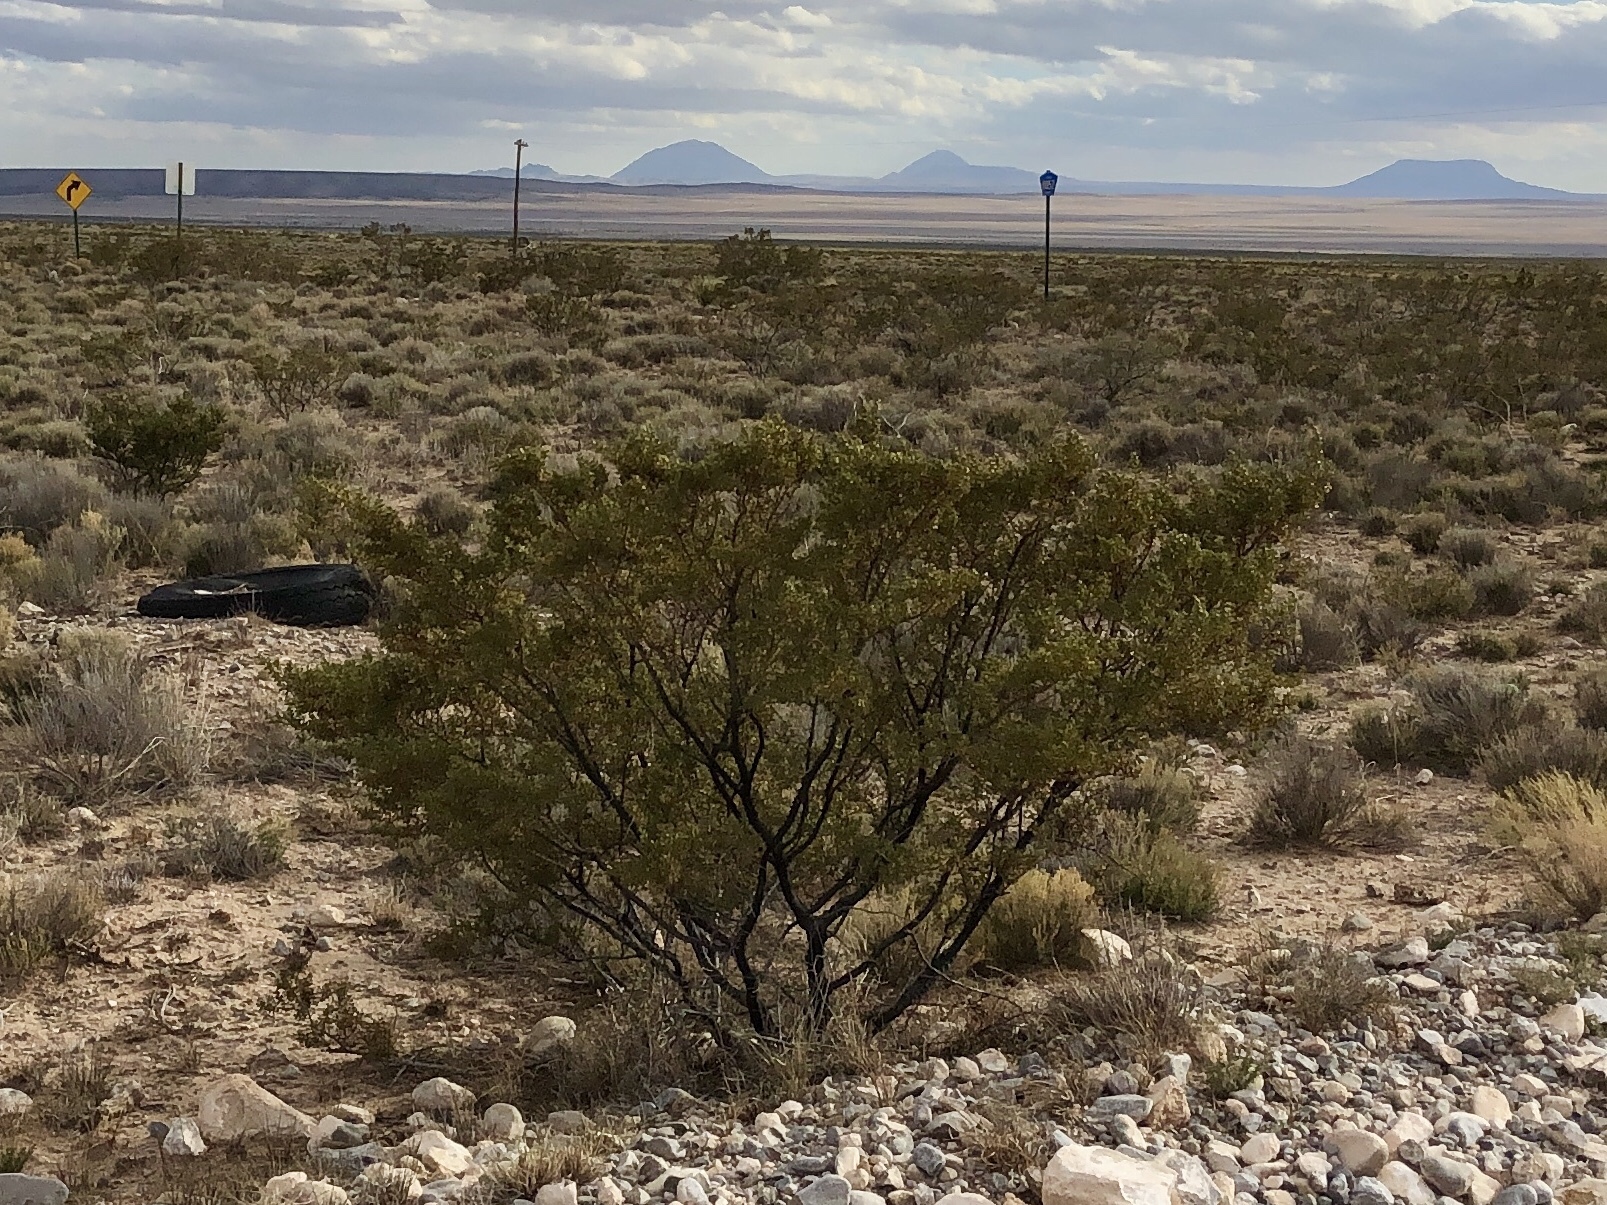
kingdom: Plantae
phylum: Tracheophyta
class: Magnoliopsida
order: Zygophyllales
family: Zygophyllaceae
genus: Larrea
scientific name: Larrea tridentata
